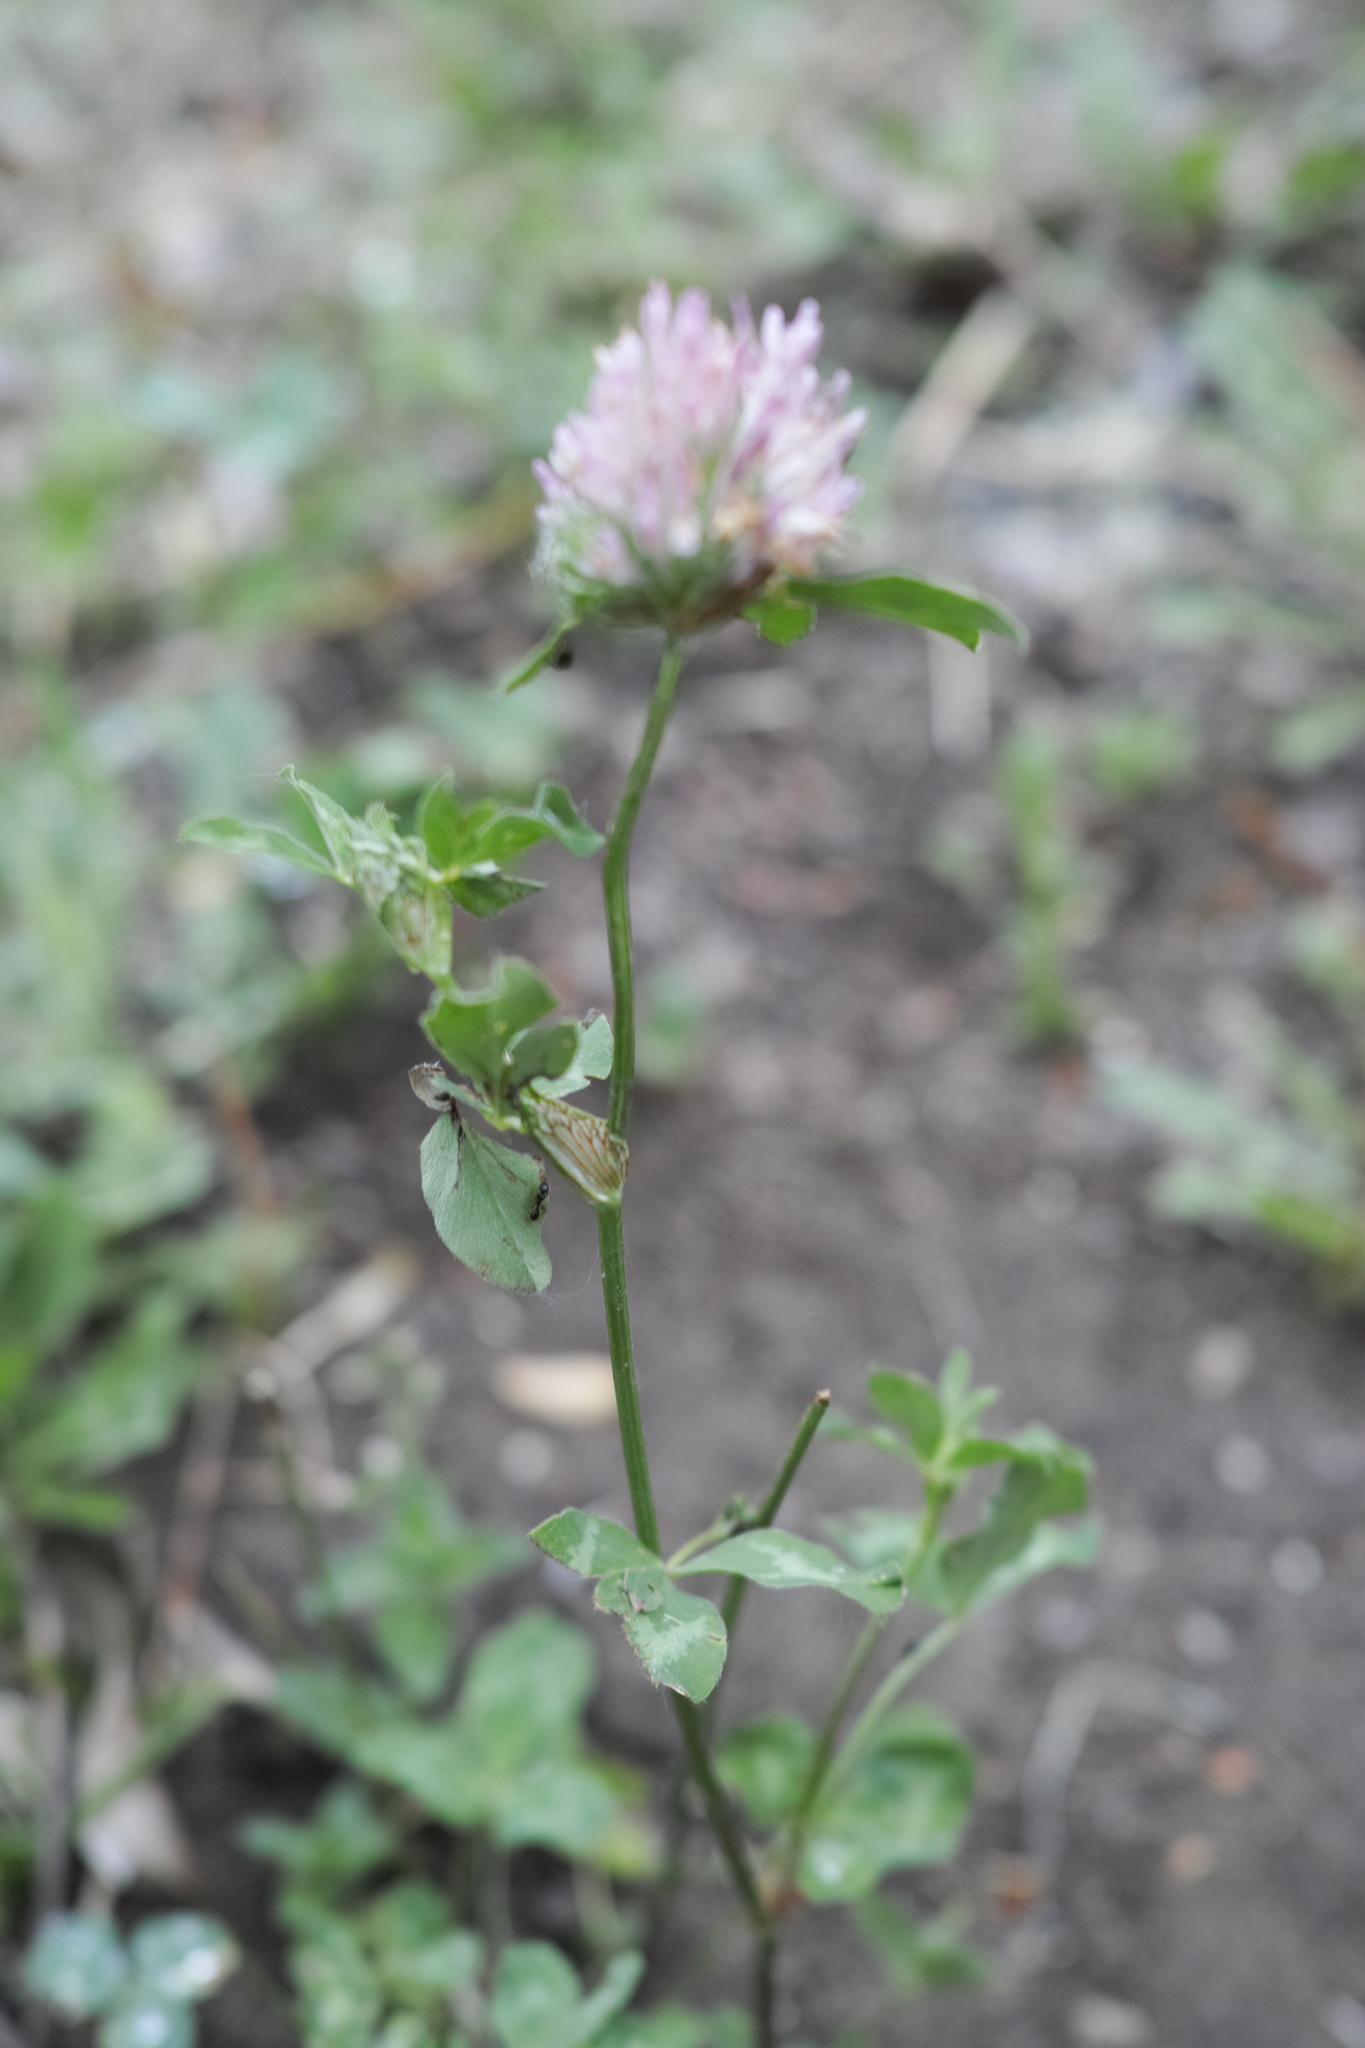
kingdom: Plantae
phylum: Tracheophyta
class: Magnoliopsida
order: Fabales
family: Fabaceae
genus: Trifolium
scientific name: Trifolium pratense
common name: Red clover
